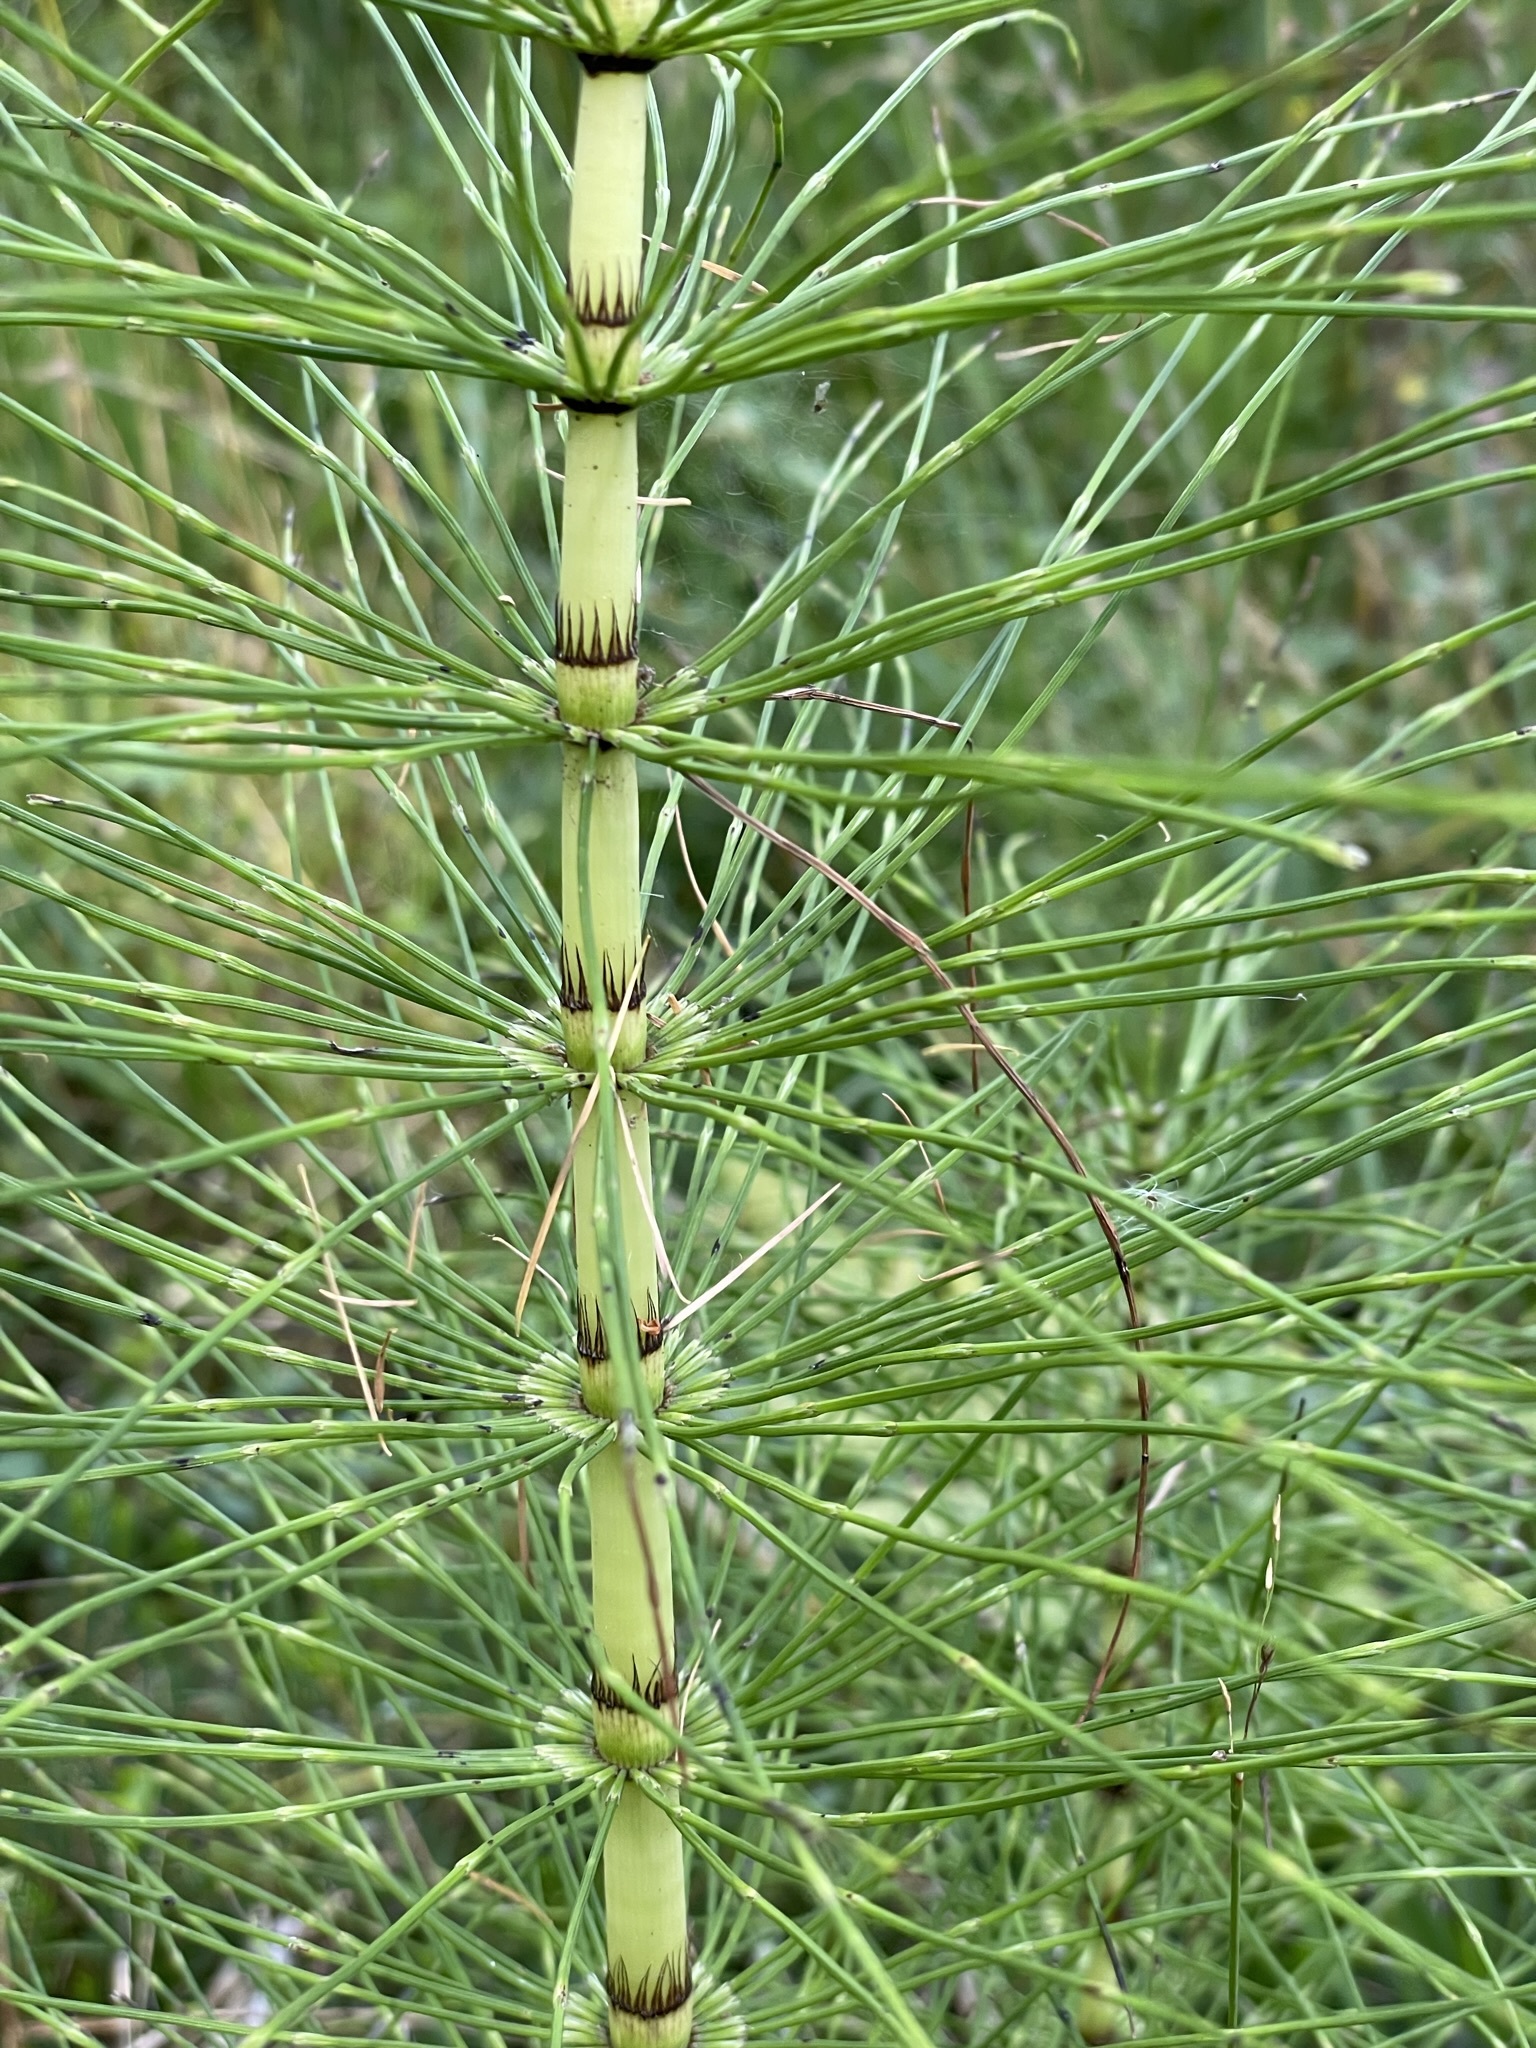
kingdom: Plantae
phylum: Tracheophyta
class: Polypodiopsida
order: Equisetales
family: Equisetaceae
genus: Equisetum
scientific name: Equisetum telmateia
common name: Great horsetail
